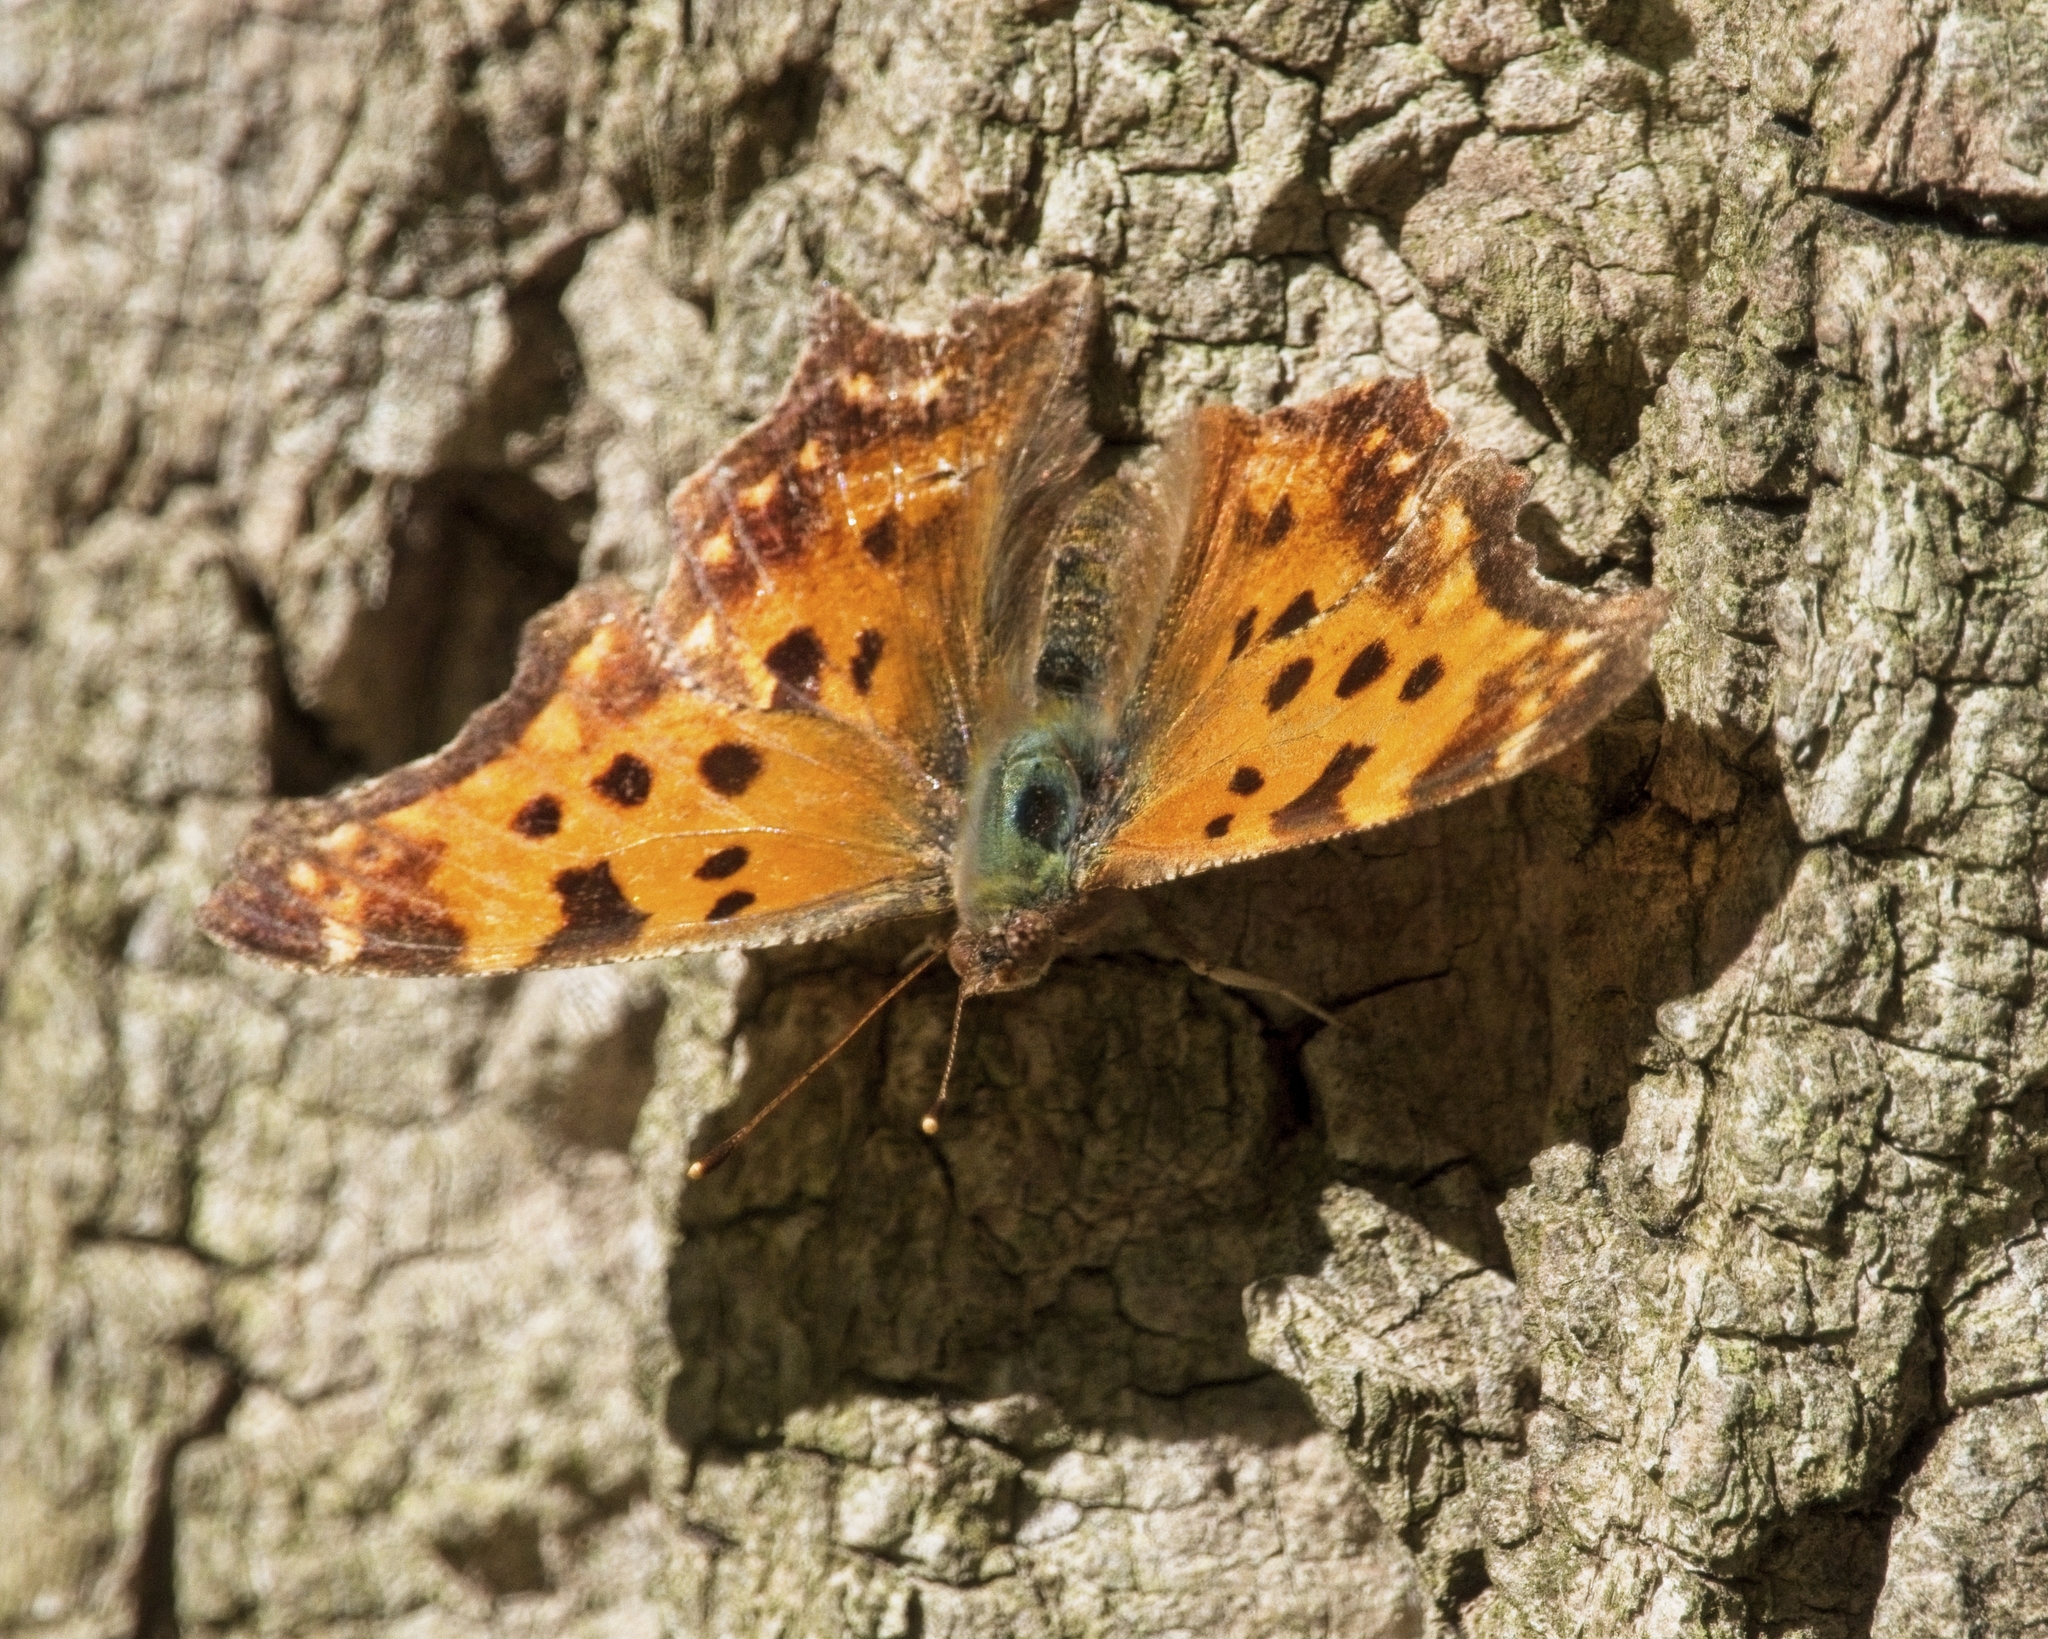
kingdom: Animalia
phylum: Arthropoda
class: Insecta
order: Lepidoptera
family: Nymphalidae
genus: Polygonia
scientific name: Polygonia comma
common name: Eastern comma
